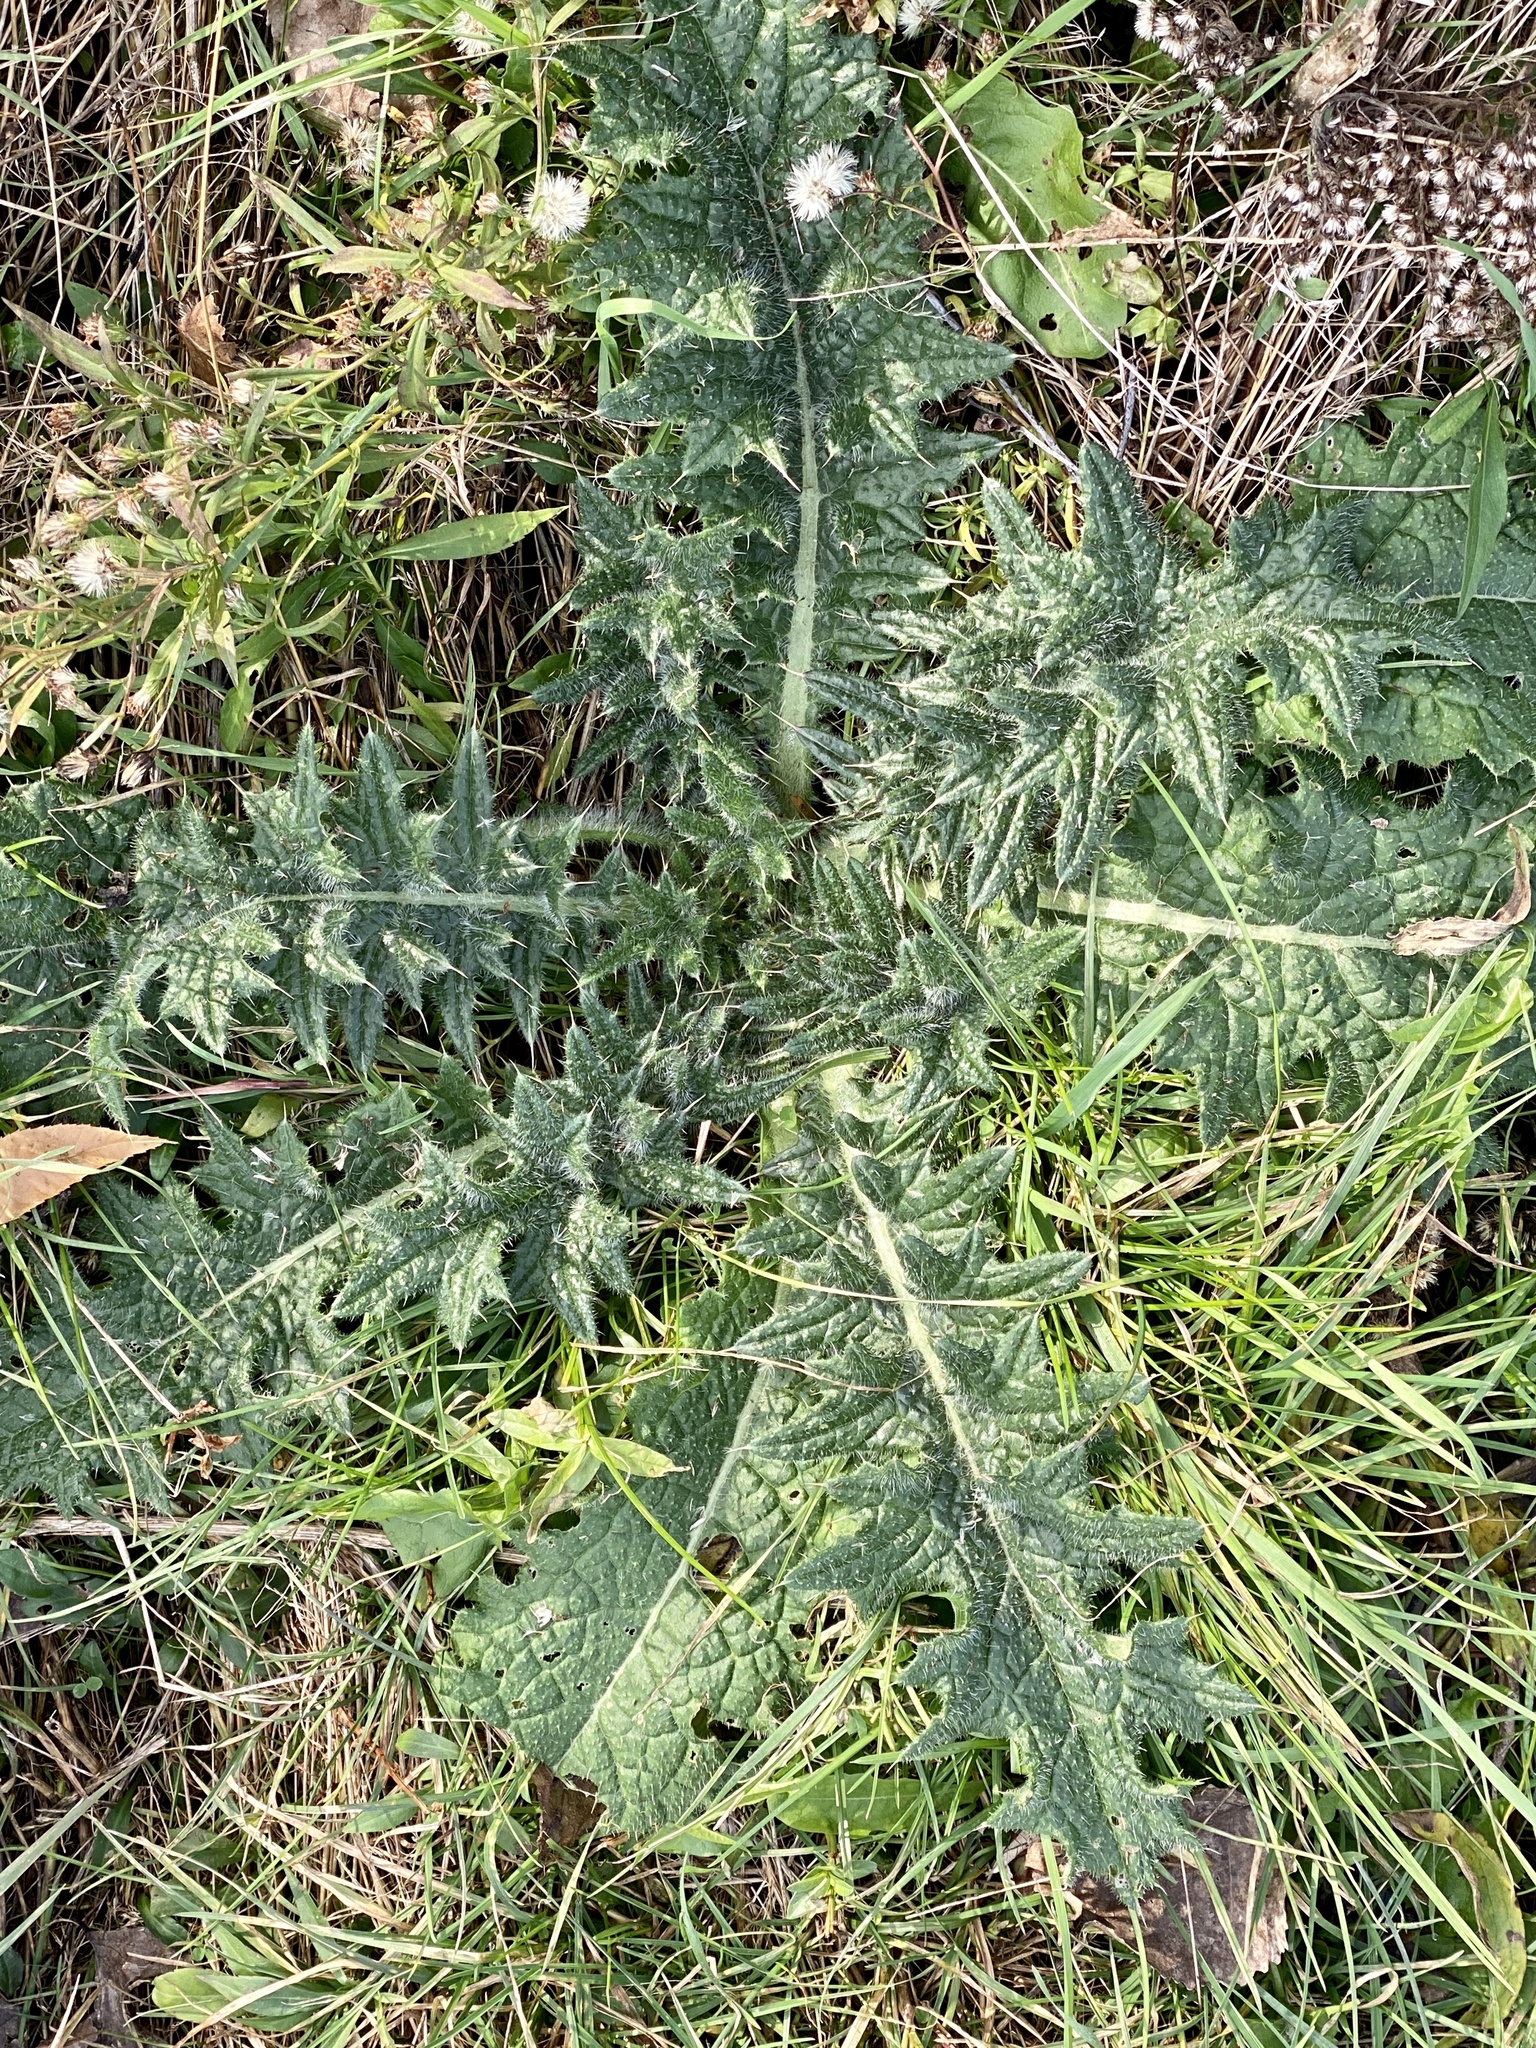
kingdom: Plantae
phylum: Tracheophyta
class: Magnoliopsida
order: Asterales
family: Asteraceae
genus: Cirsium
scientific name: Cirsium vulgare
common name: Bull thistle
